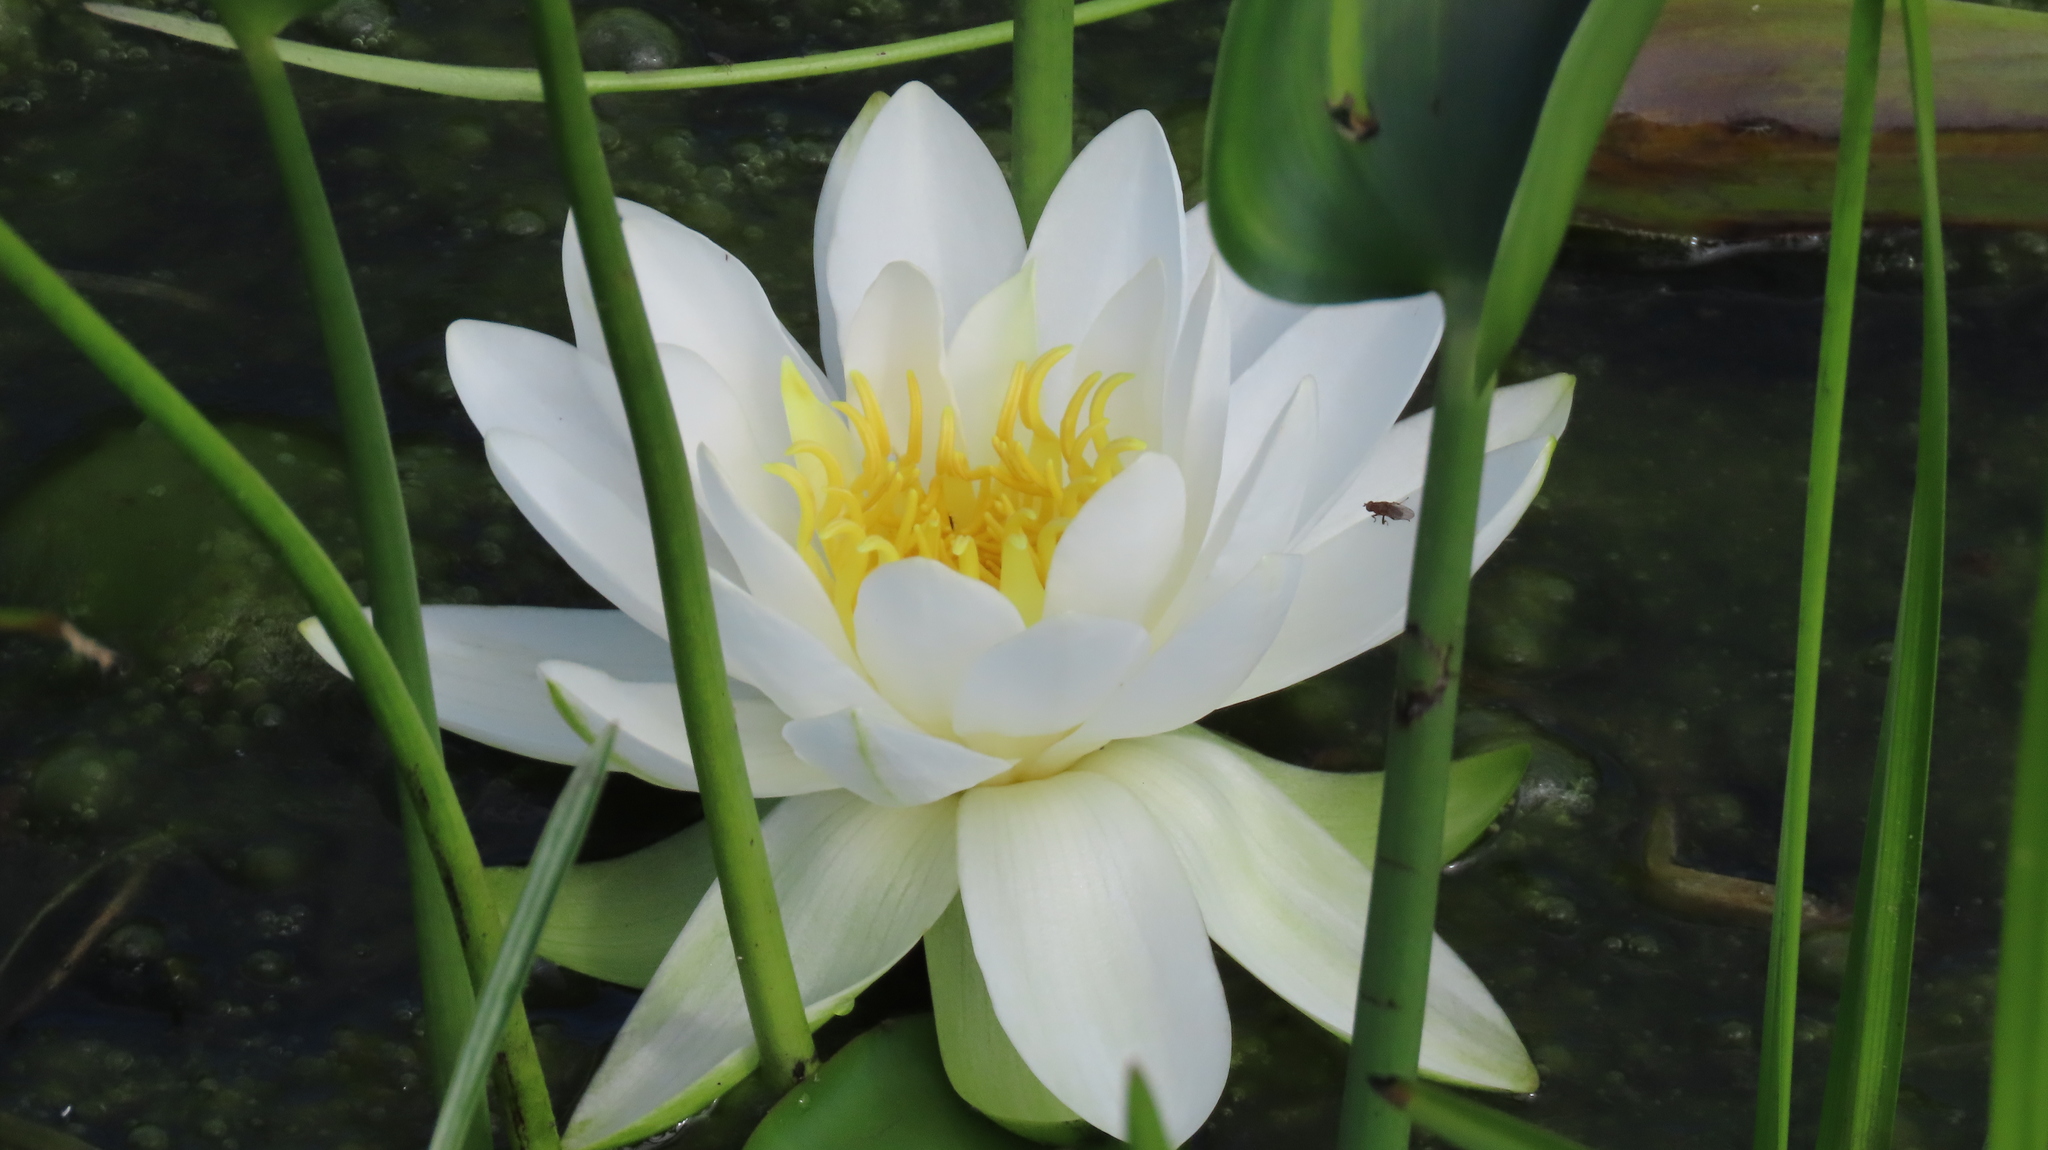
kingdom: Plantae
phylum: Tracheophyta
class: Magnoliopsida
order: Nymphaeales
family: Nymphaeaceae
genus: Nymphaea
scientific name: Nymphaea odorata
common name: Fragrant water-lily
